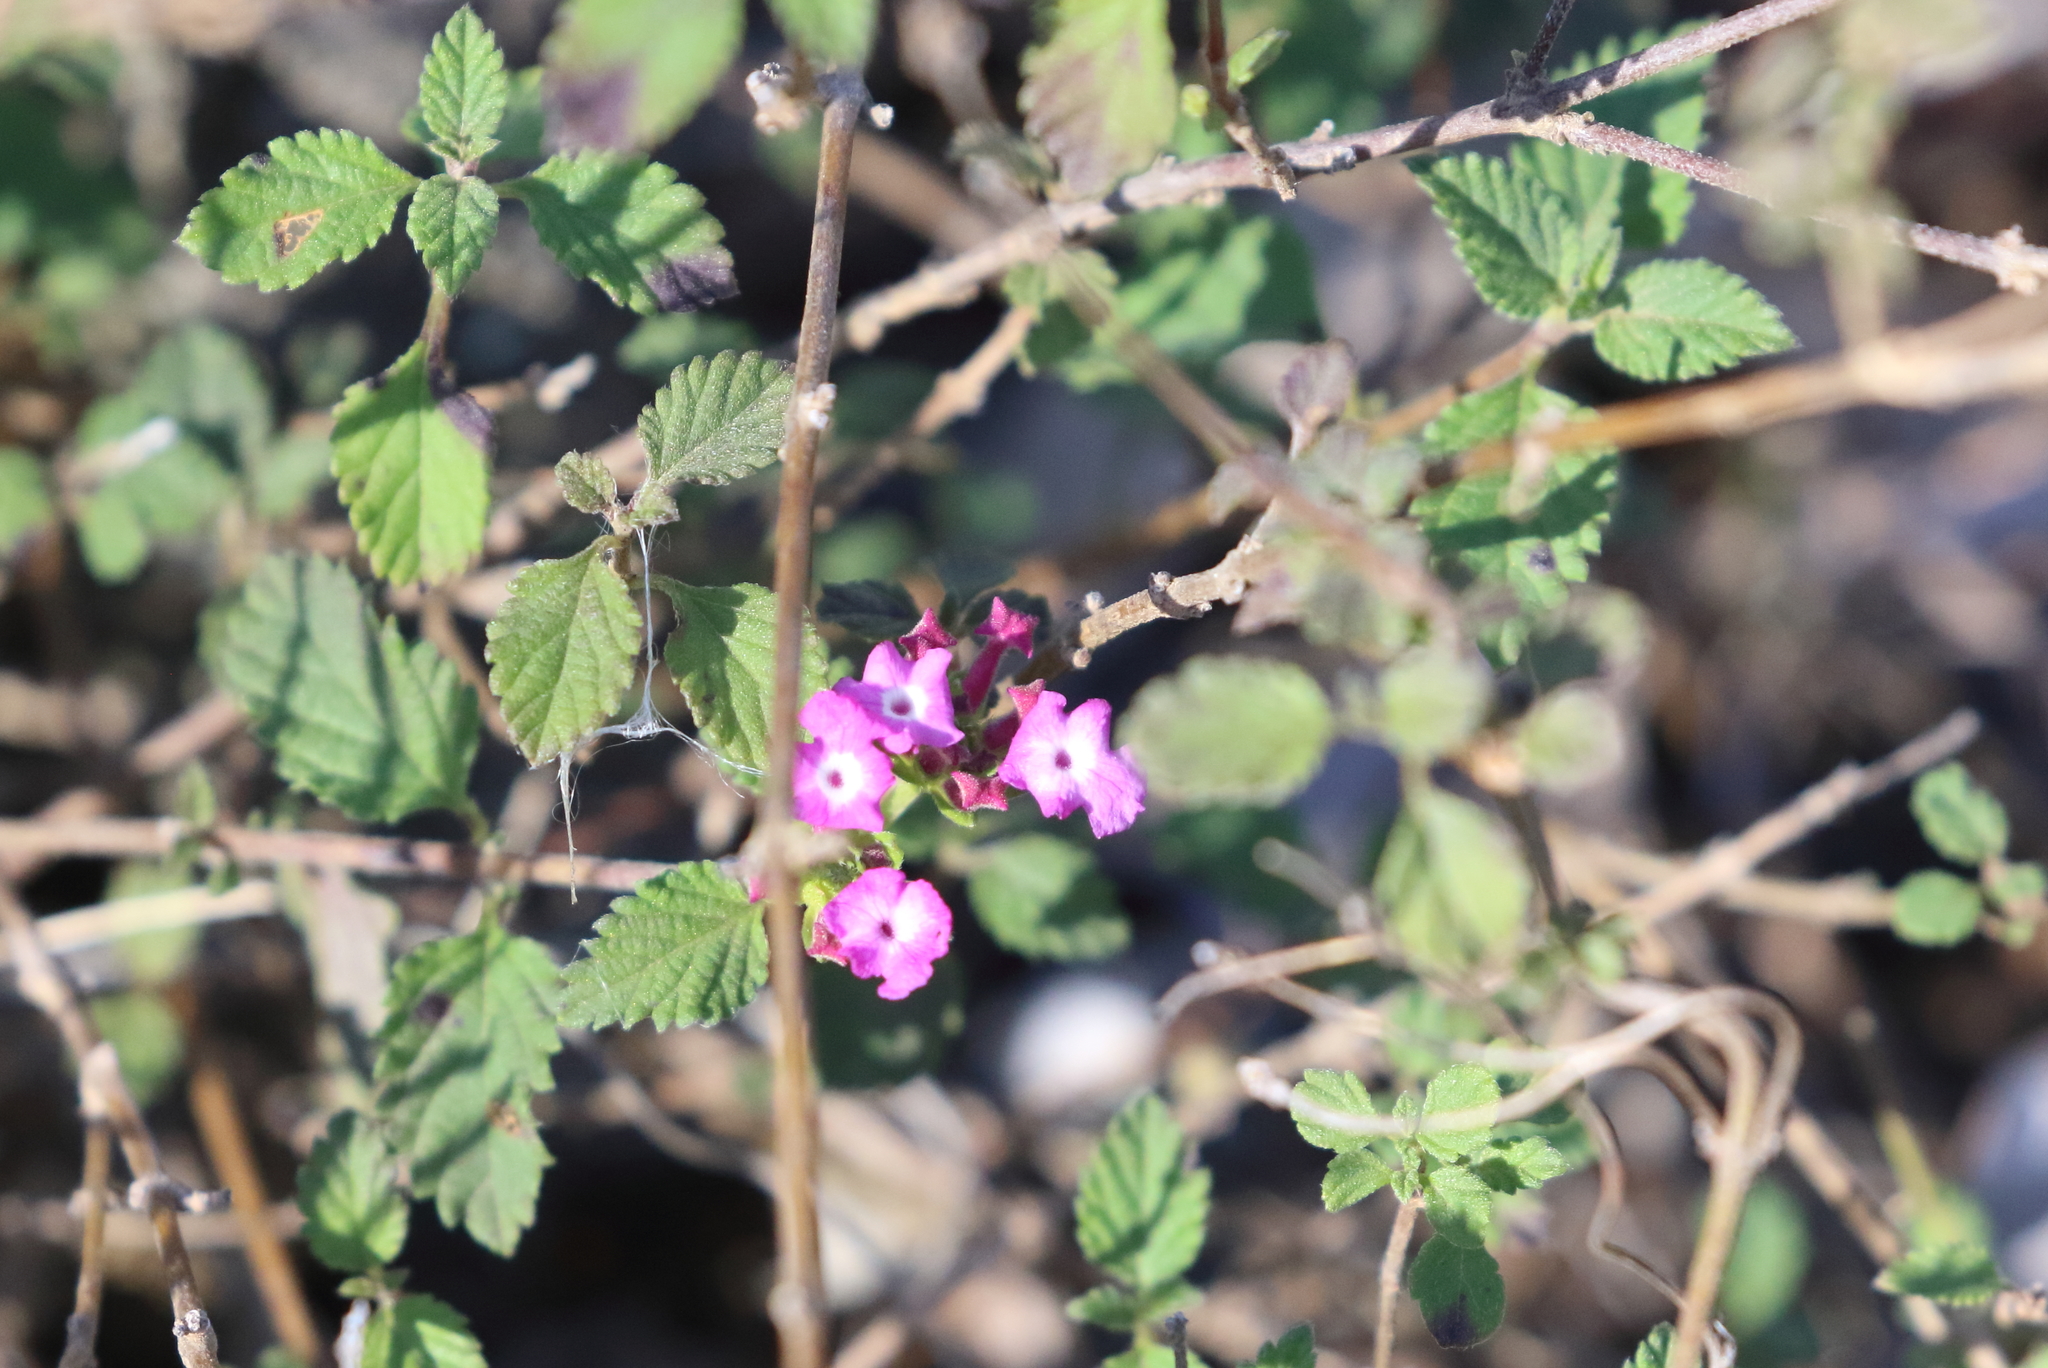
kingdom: Plantae
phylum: Tracheophyta
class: Magnoliopsida
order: Lamiales
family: Verbenaceae
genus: Lantana
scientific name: Lantana montevidensis
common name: Trailing shrubverbena
